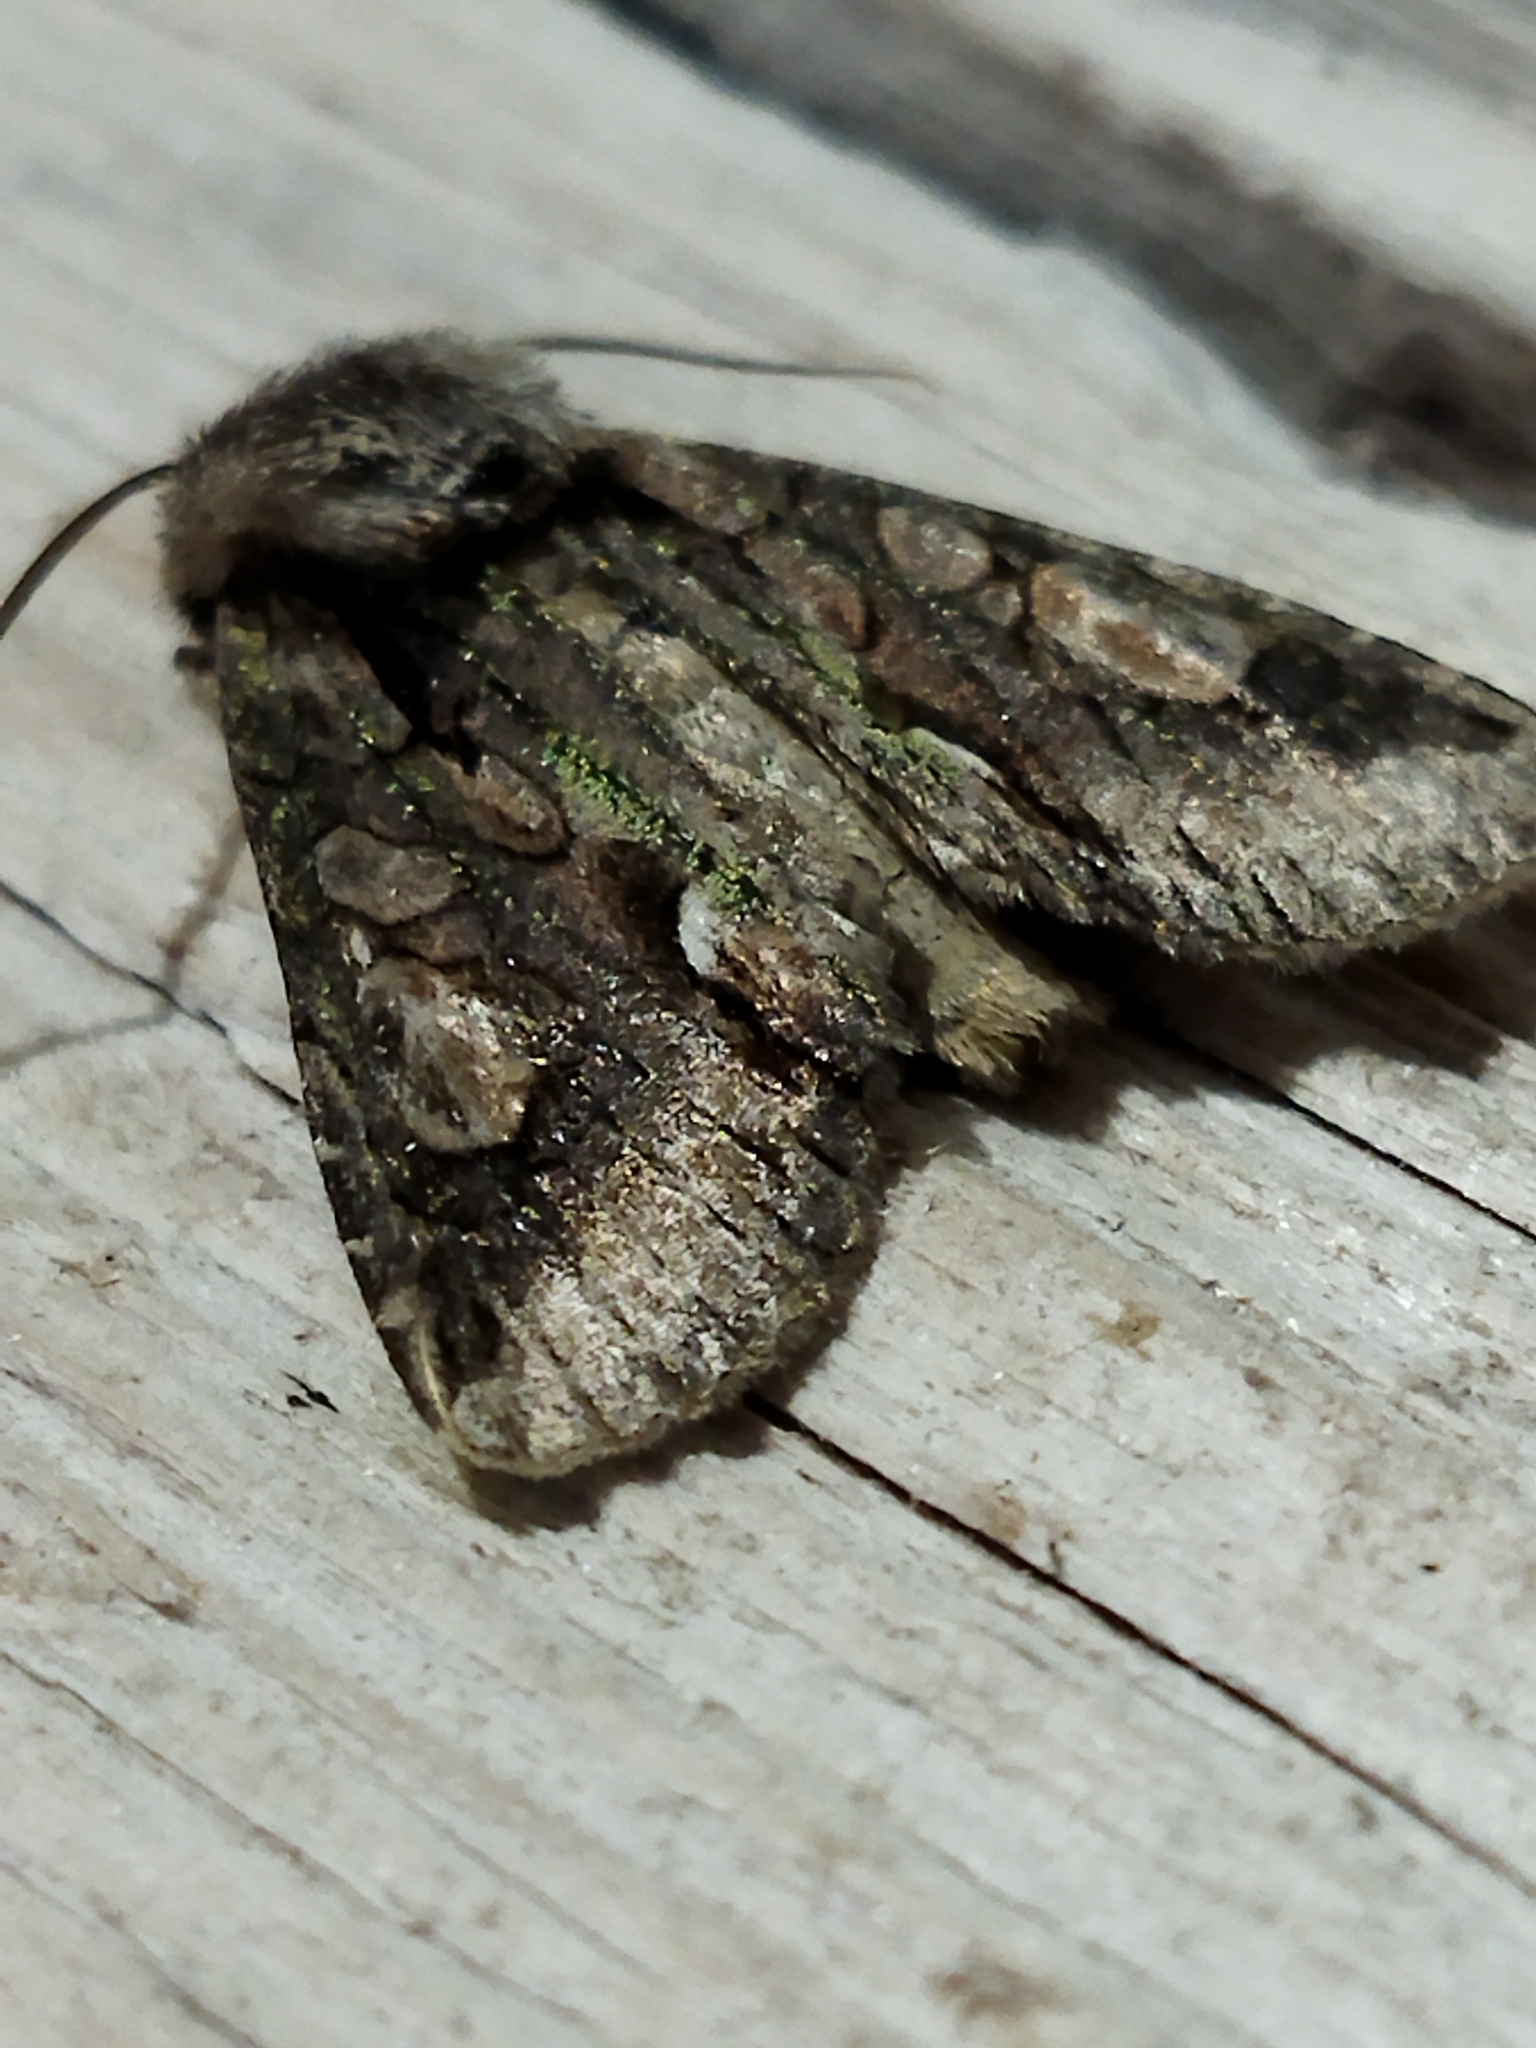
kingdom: Animalia
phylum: Arthropoda
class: Insecta
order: Lepidoptera
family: Noctuidae
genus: Allophyes
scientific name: Allophyes oxyacanthae
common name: Green-brindled crescent
